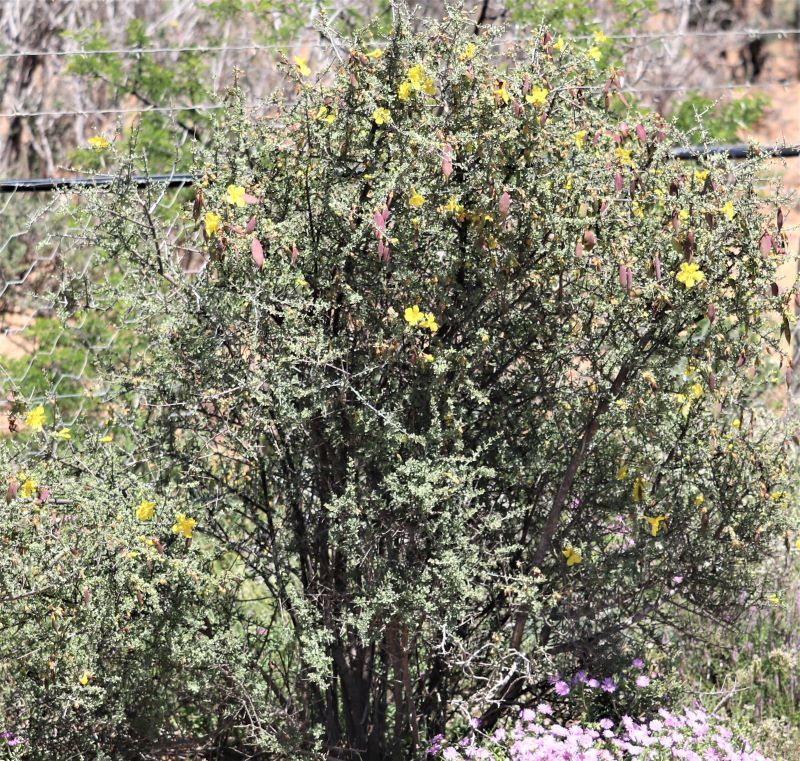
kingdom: Plantae
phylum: Tracheophyta
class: Magnoliopsida
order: Lamiales
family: Bignoniaceae
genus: Rhigozum
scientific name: Rhigozum obovatum
